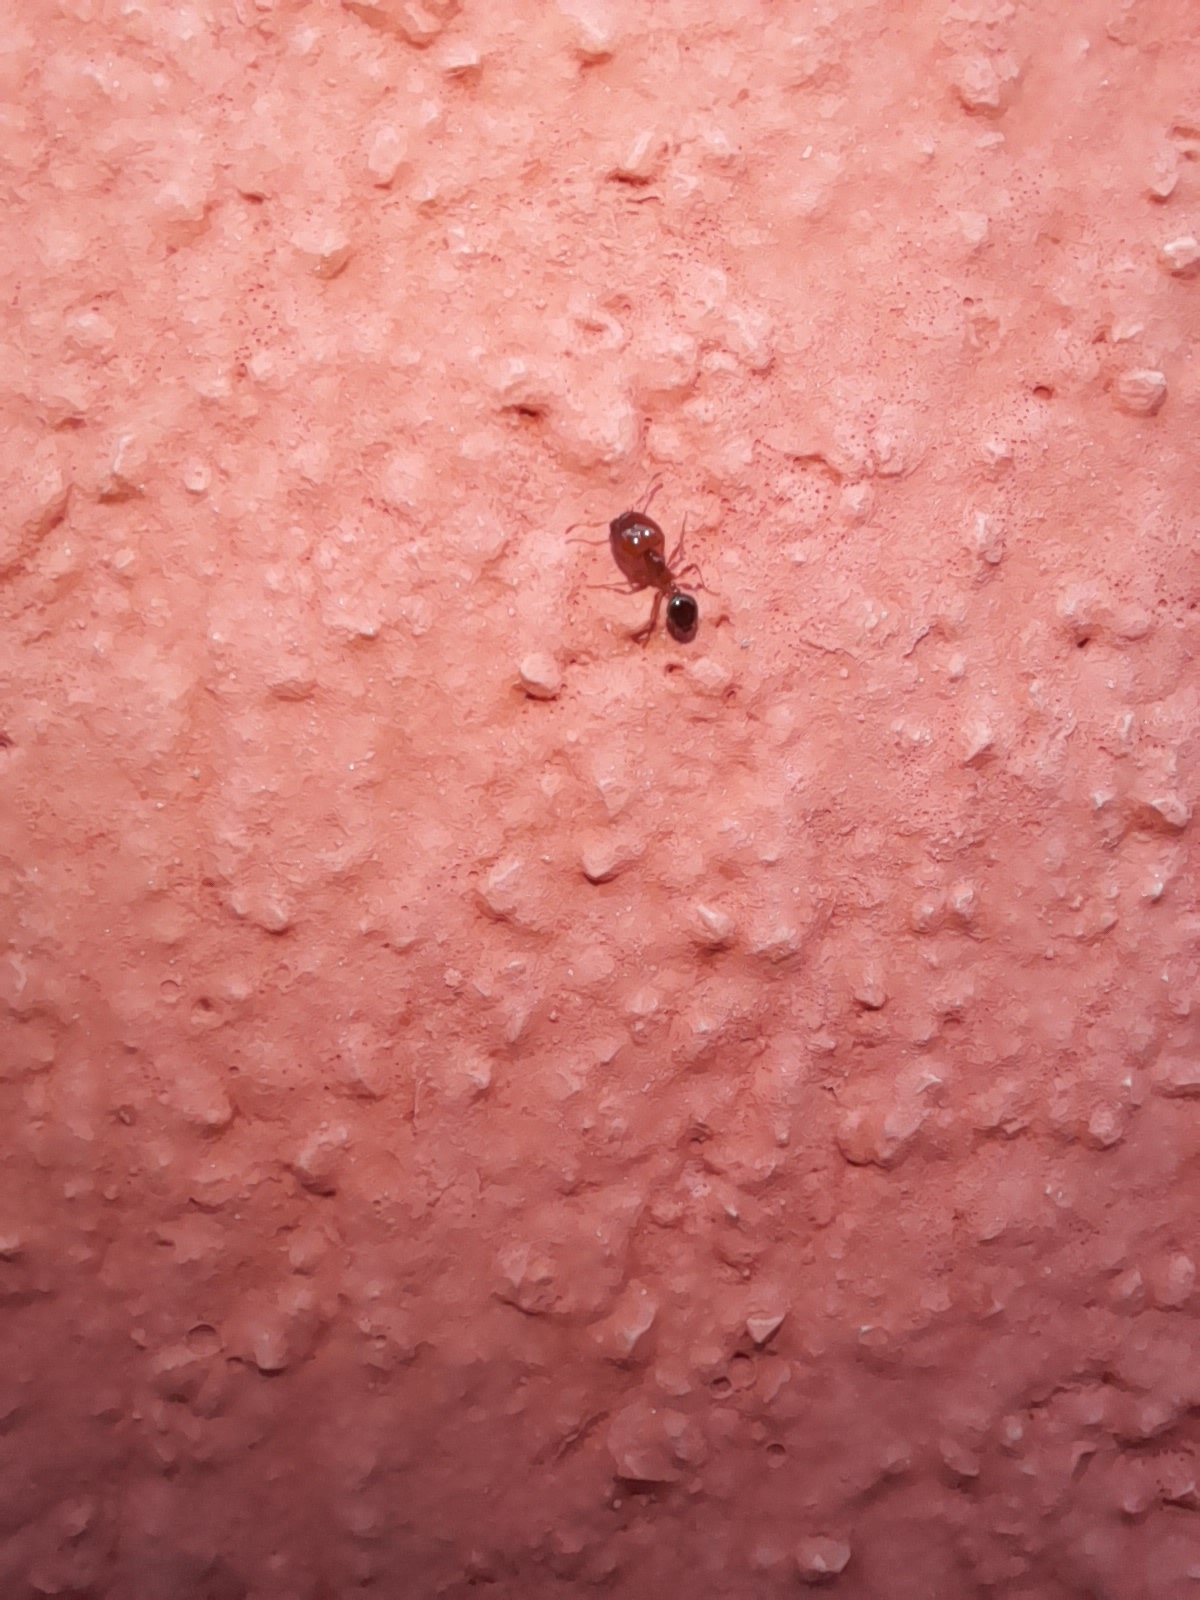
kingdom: Animalia
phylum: Arthropoda
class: Insecta
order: Hymenoptera
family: Formicidae
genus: Pheidole
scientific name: Pheidole pallidula
